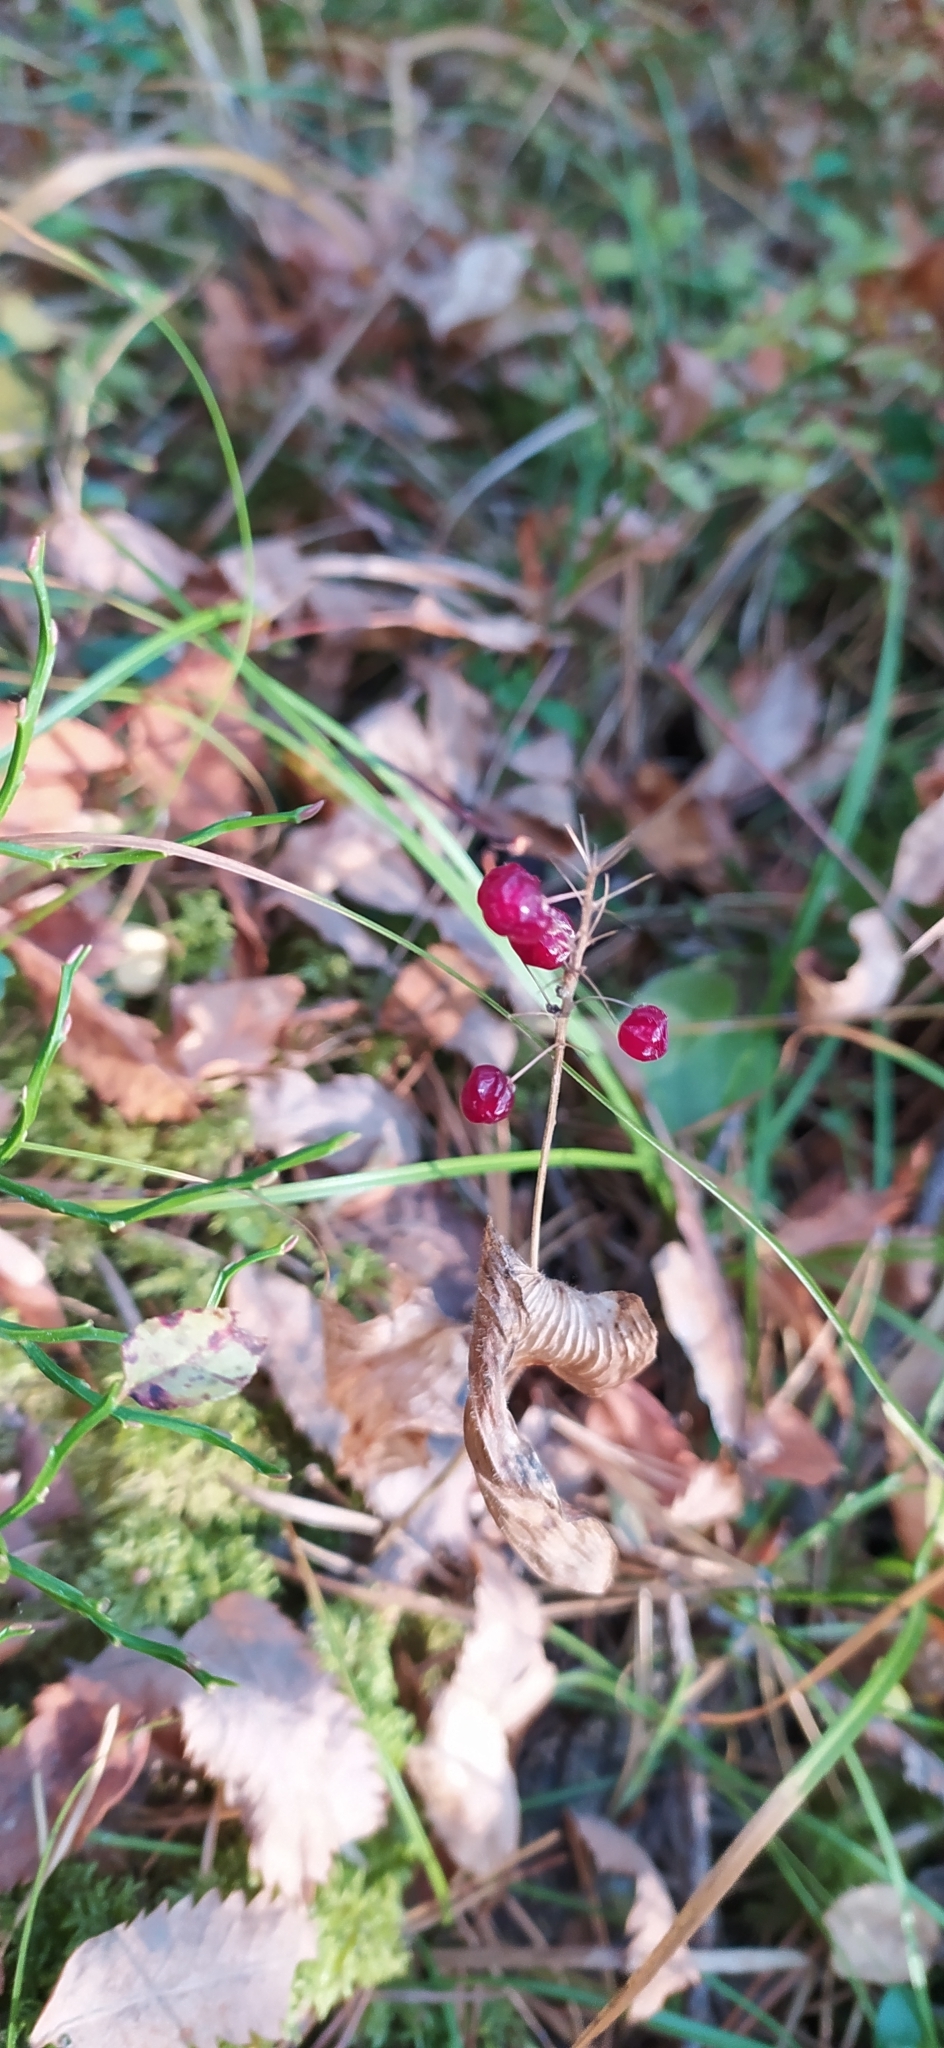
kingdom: Plantae
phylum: Tracheophyta
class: Liliopsida
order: Asparagales
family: Asparagaceae
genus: Maianthemum
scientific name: Maianthemum bifolium
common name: May lily
